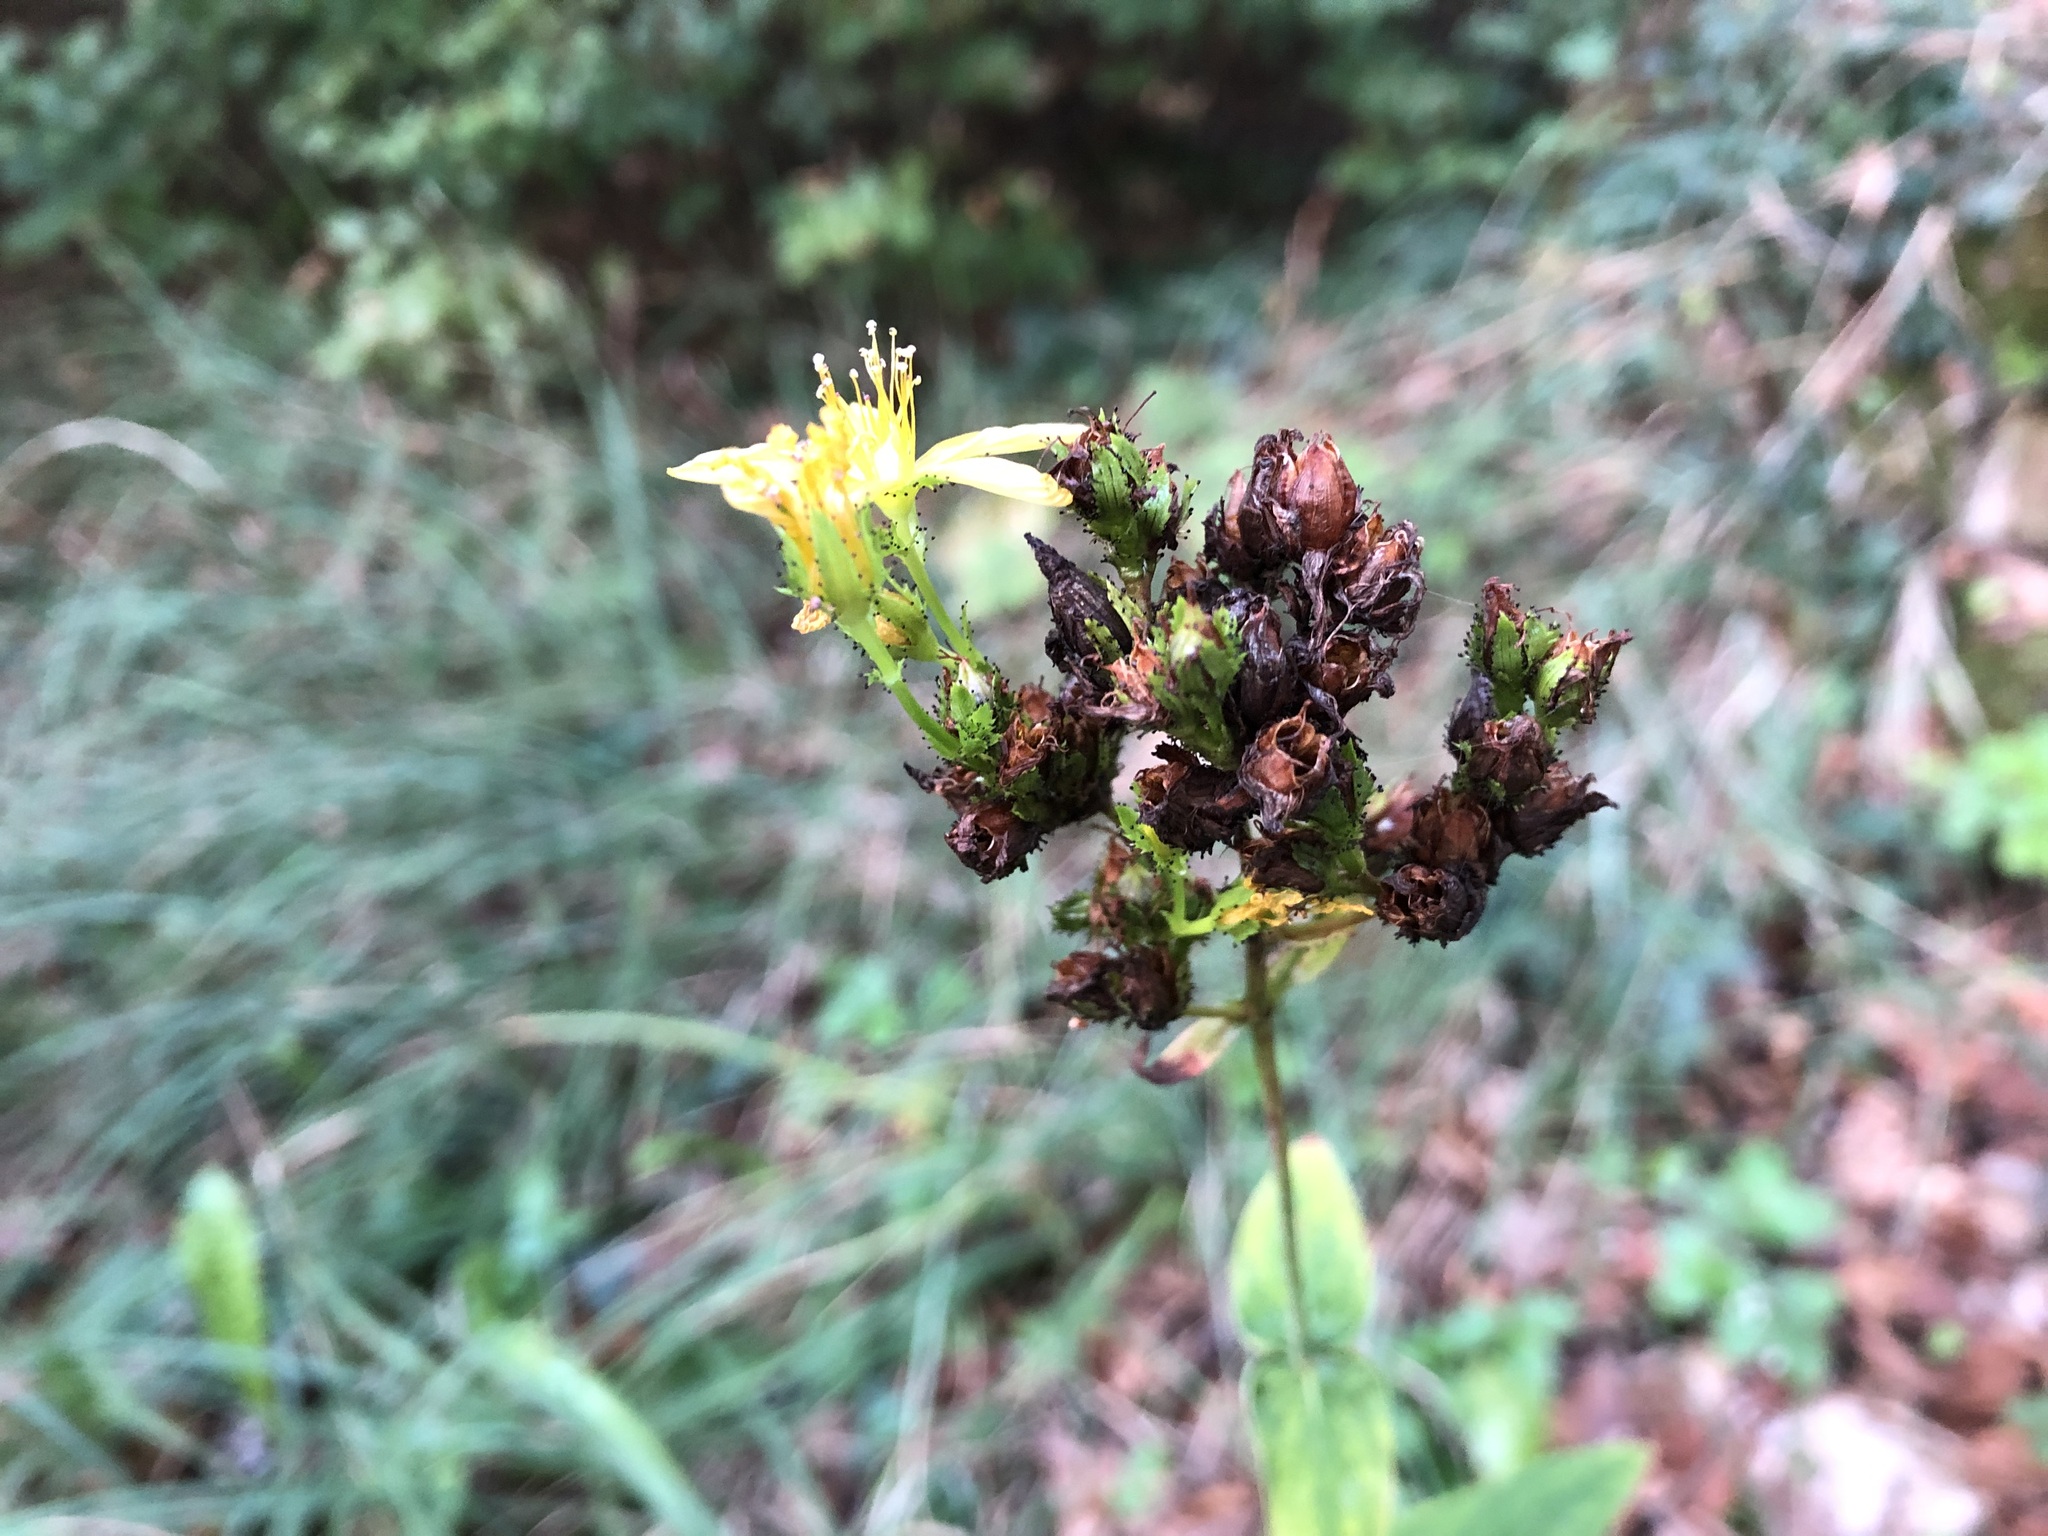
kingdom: Plantae
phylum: Tracheophyta
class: Magnoliopsida
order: Malpighiales
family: Hypericaceae
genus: Hypericum
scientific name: Hypericum montanum
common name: Pale st. john's-wort
